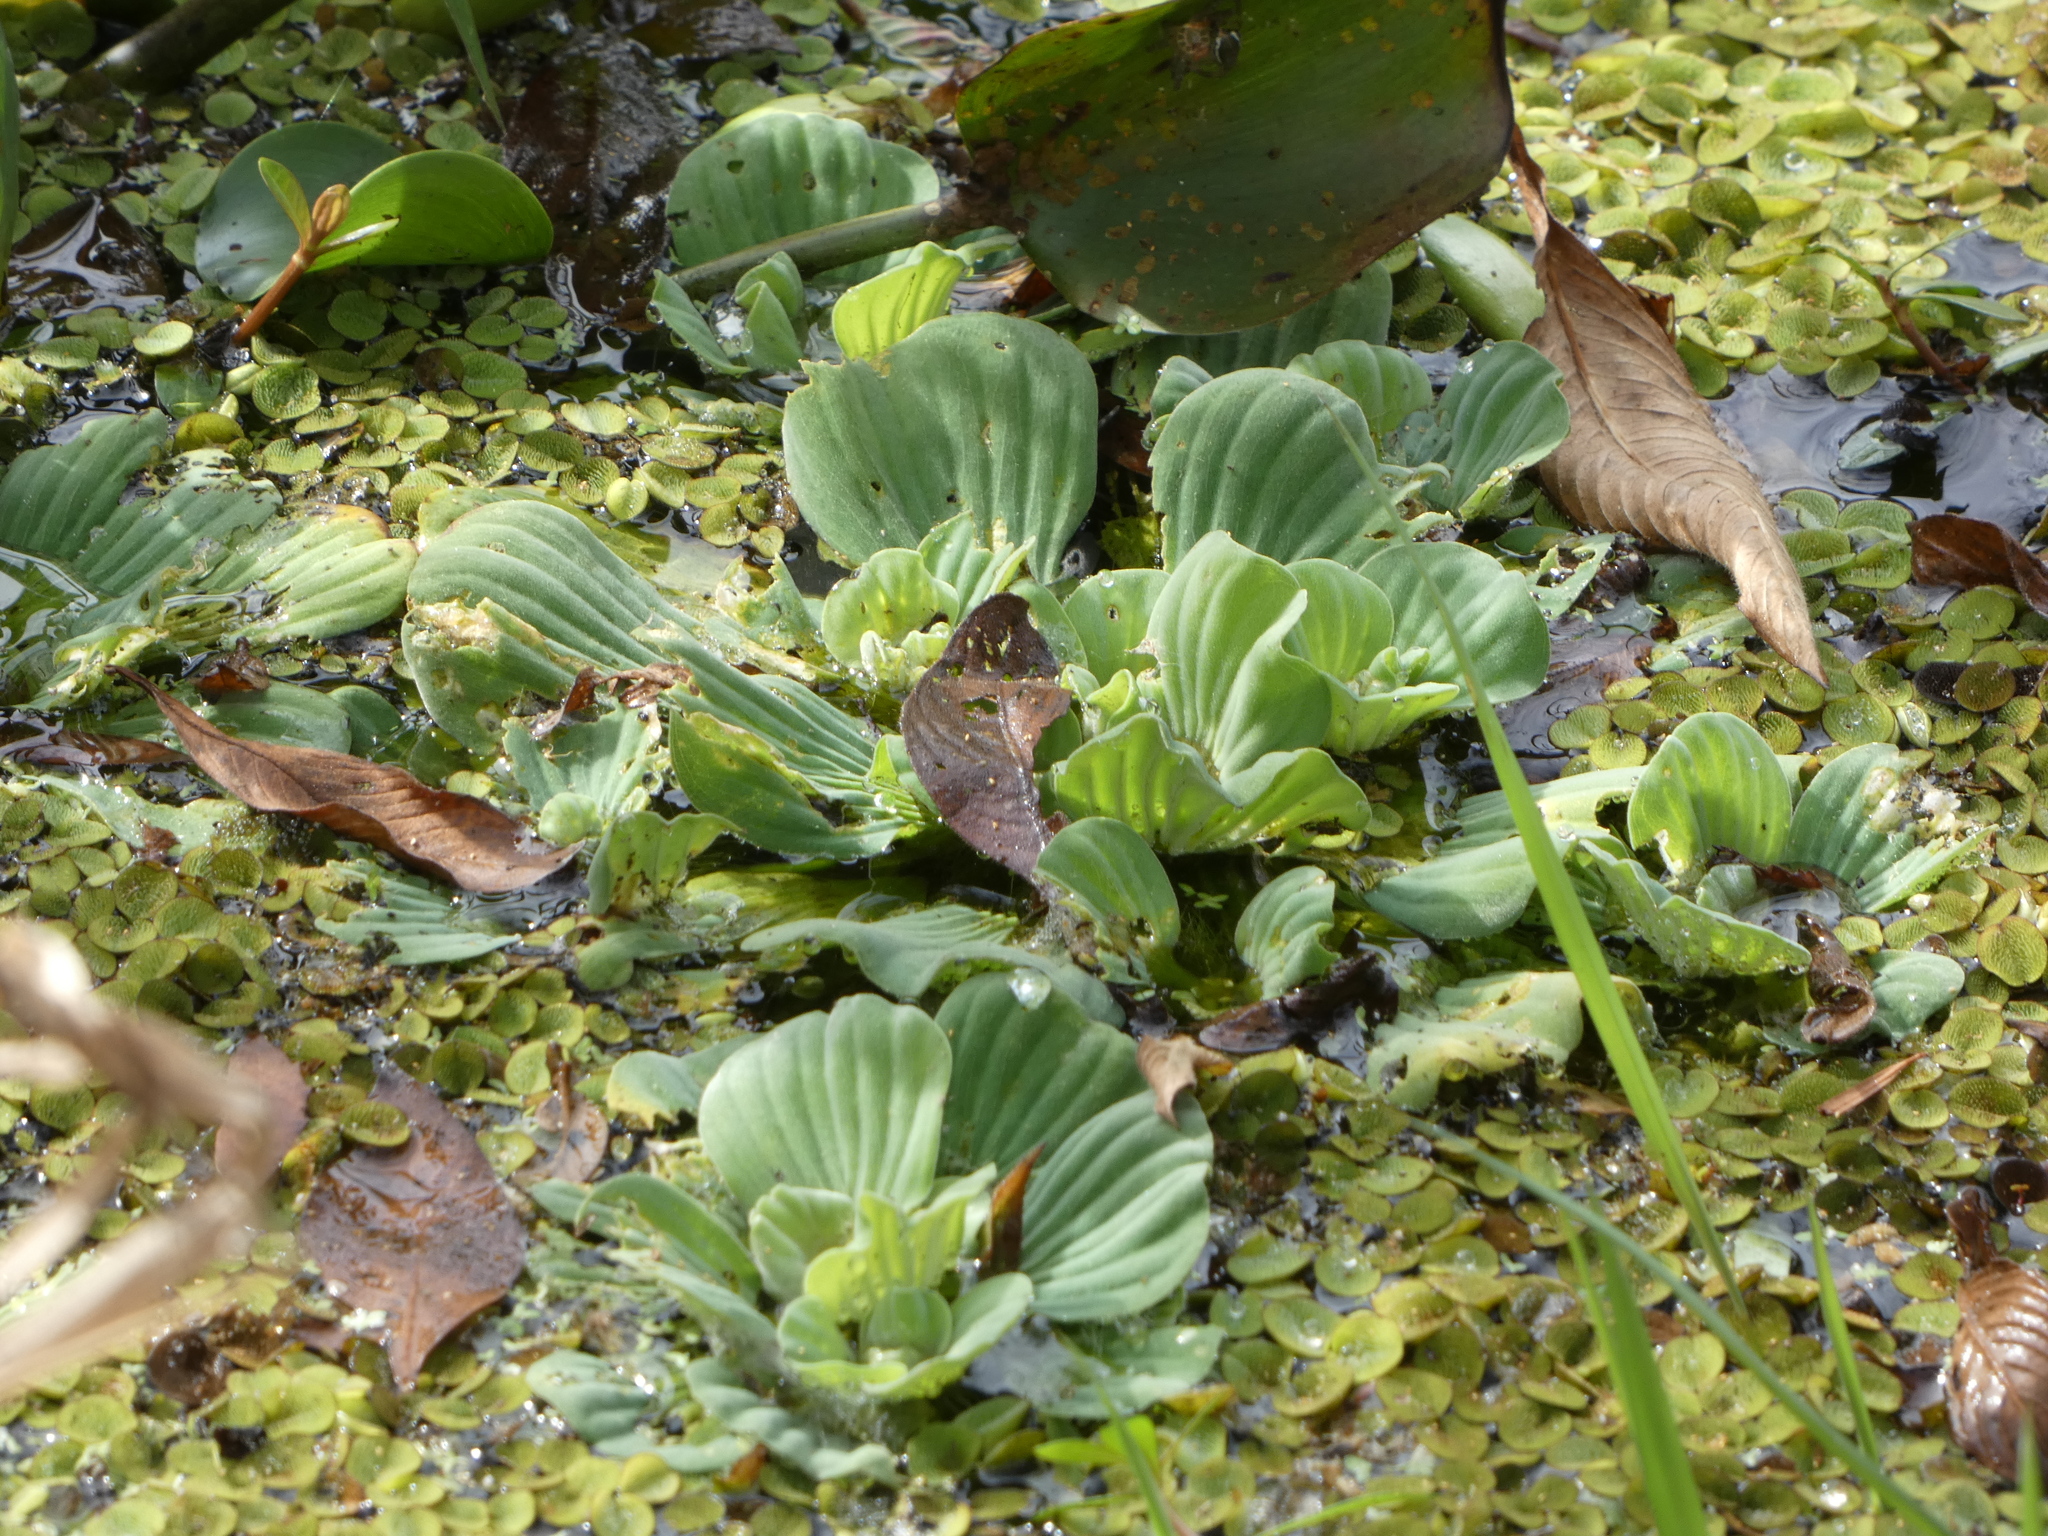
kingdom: Plantae
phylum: Tracheophyta
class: Liliopsida
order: Alismatales
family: Araceae
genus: Pistia
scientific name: Pistia stratiotes
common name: Water lettuce
